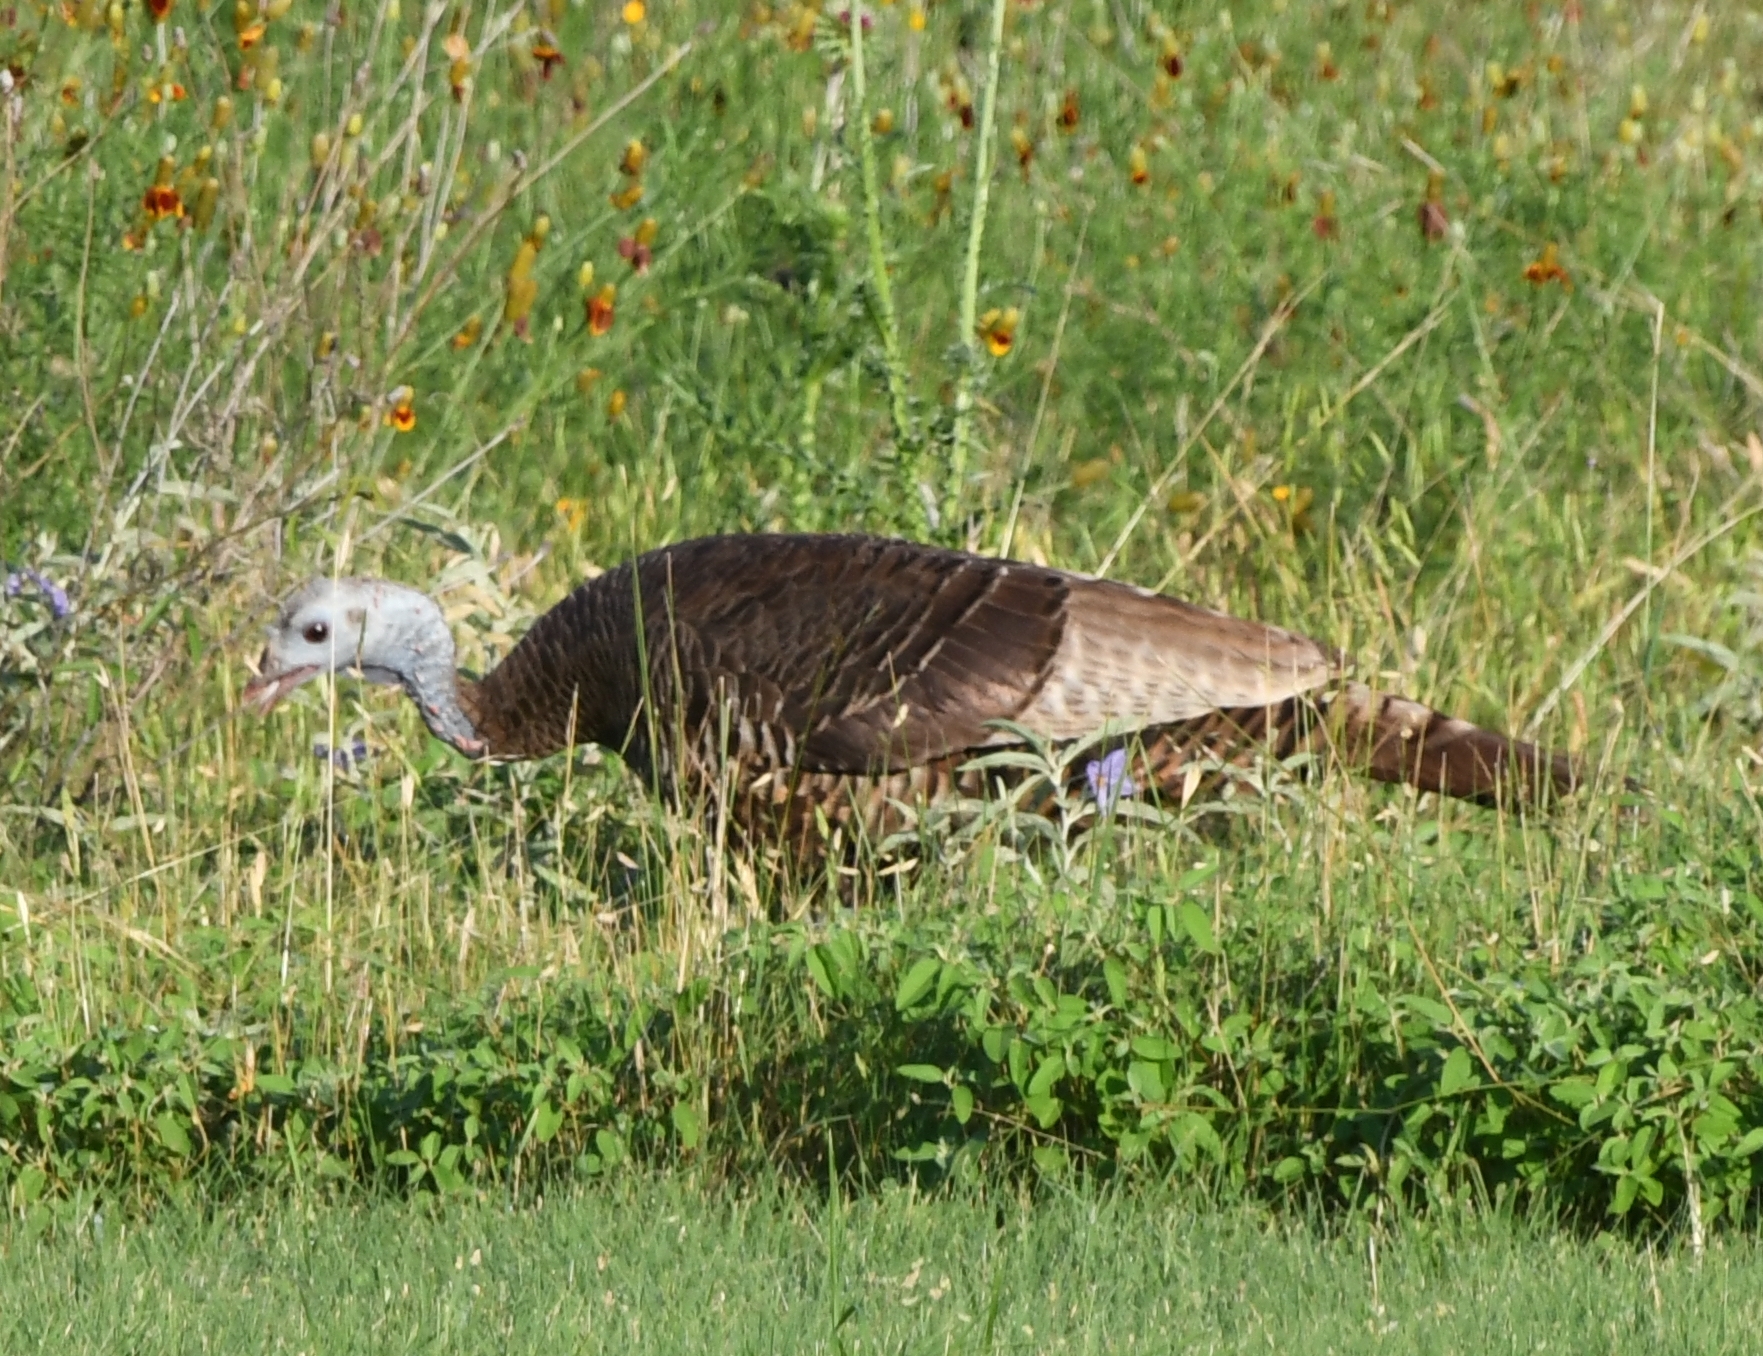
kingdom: Animalia
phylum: Chordata
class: Aves
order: Galliformes
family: Phasianidae
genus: Meleagris
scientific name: Meleagris gallopavo
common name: Wild turkey
